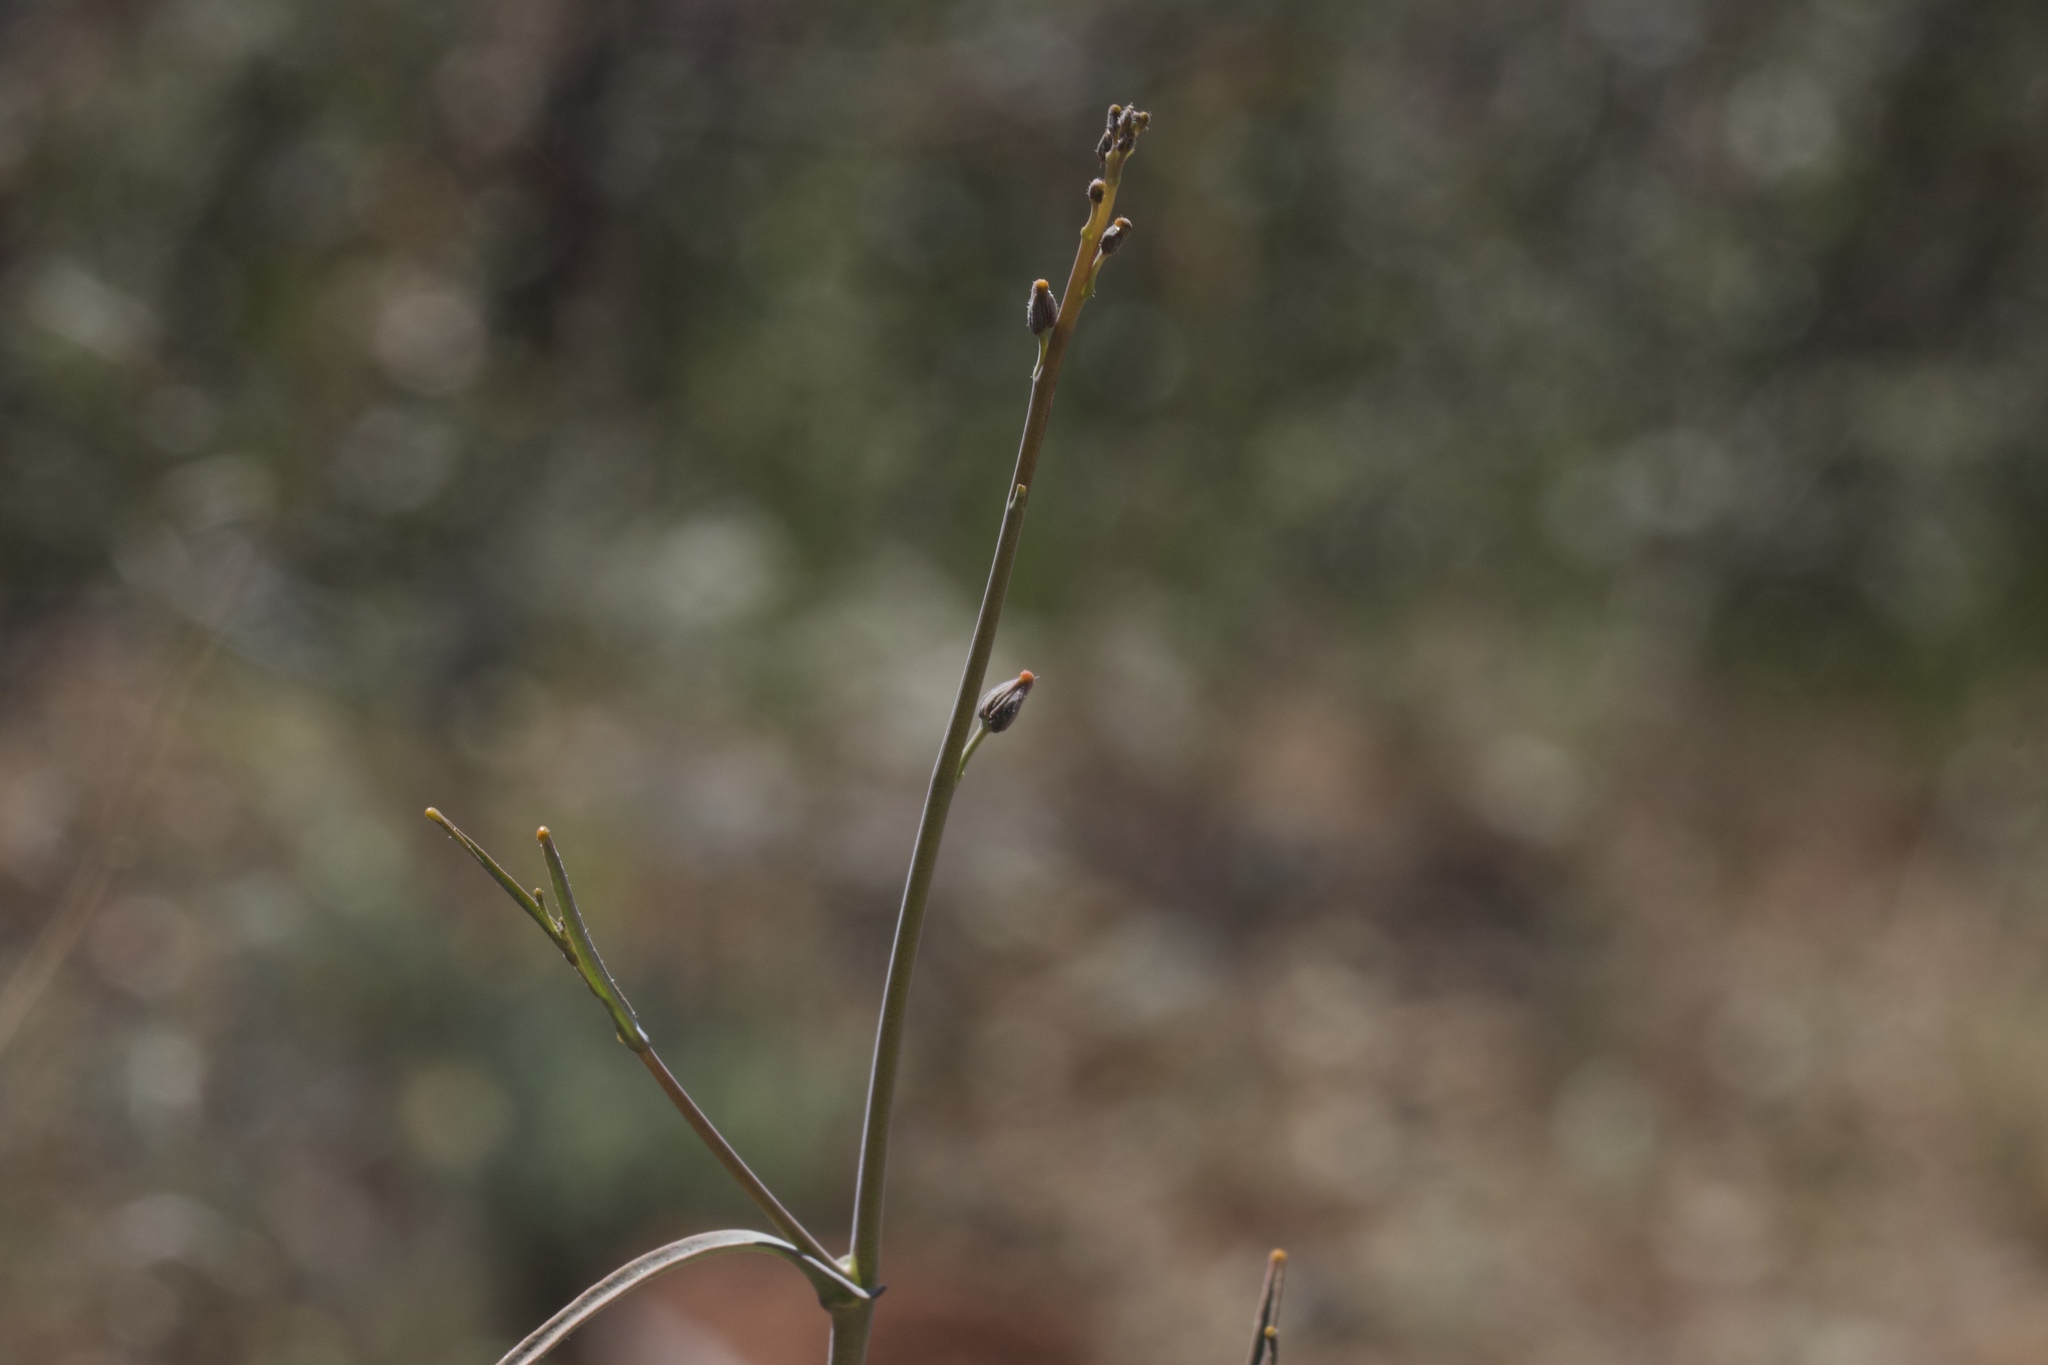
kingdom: Plantae
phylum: Tracheophyta
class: Magnoliopsida
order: Brassicales
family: Brassicaceae
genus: Streptanthus
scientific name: Streptanthus breweri
